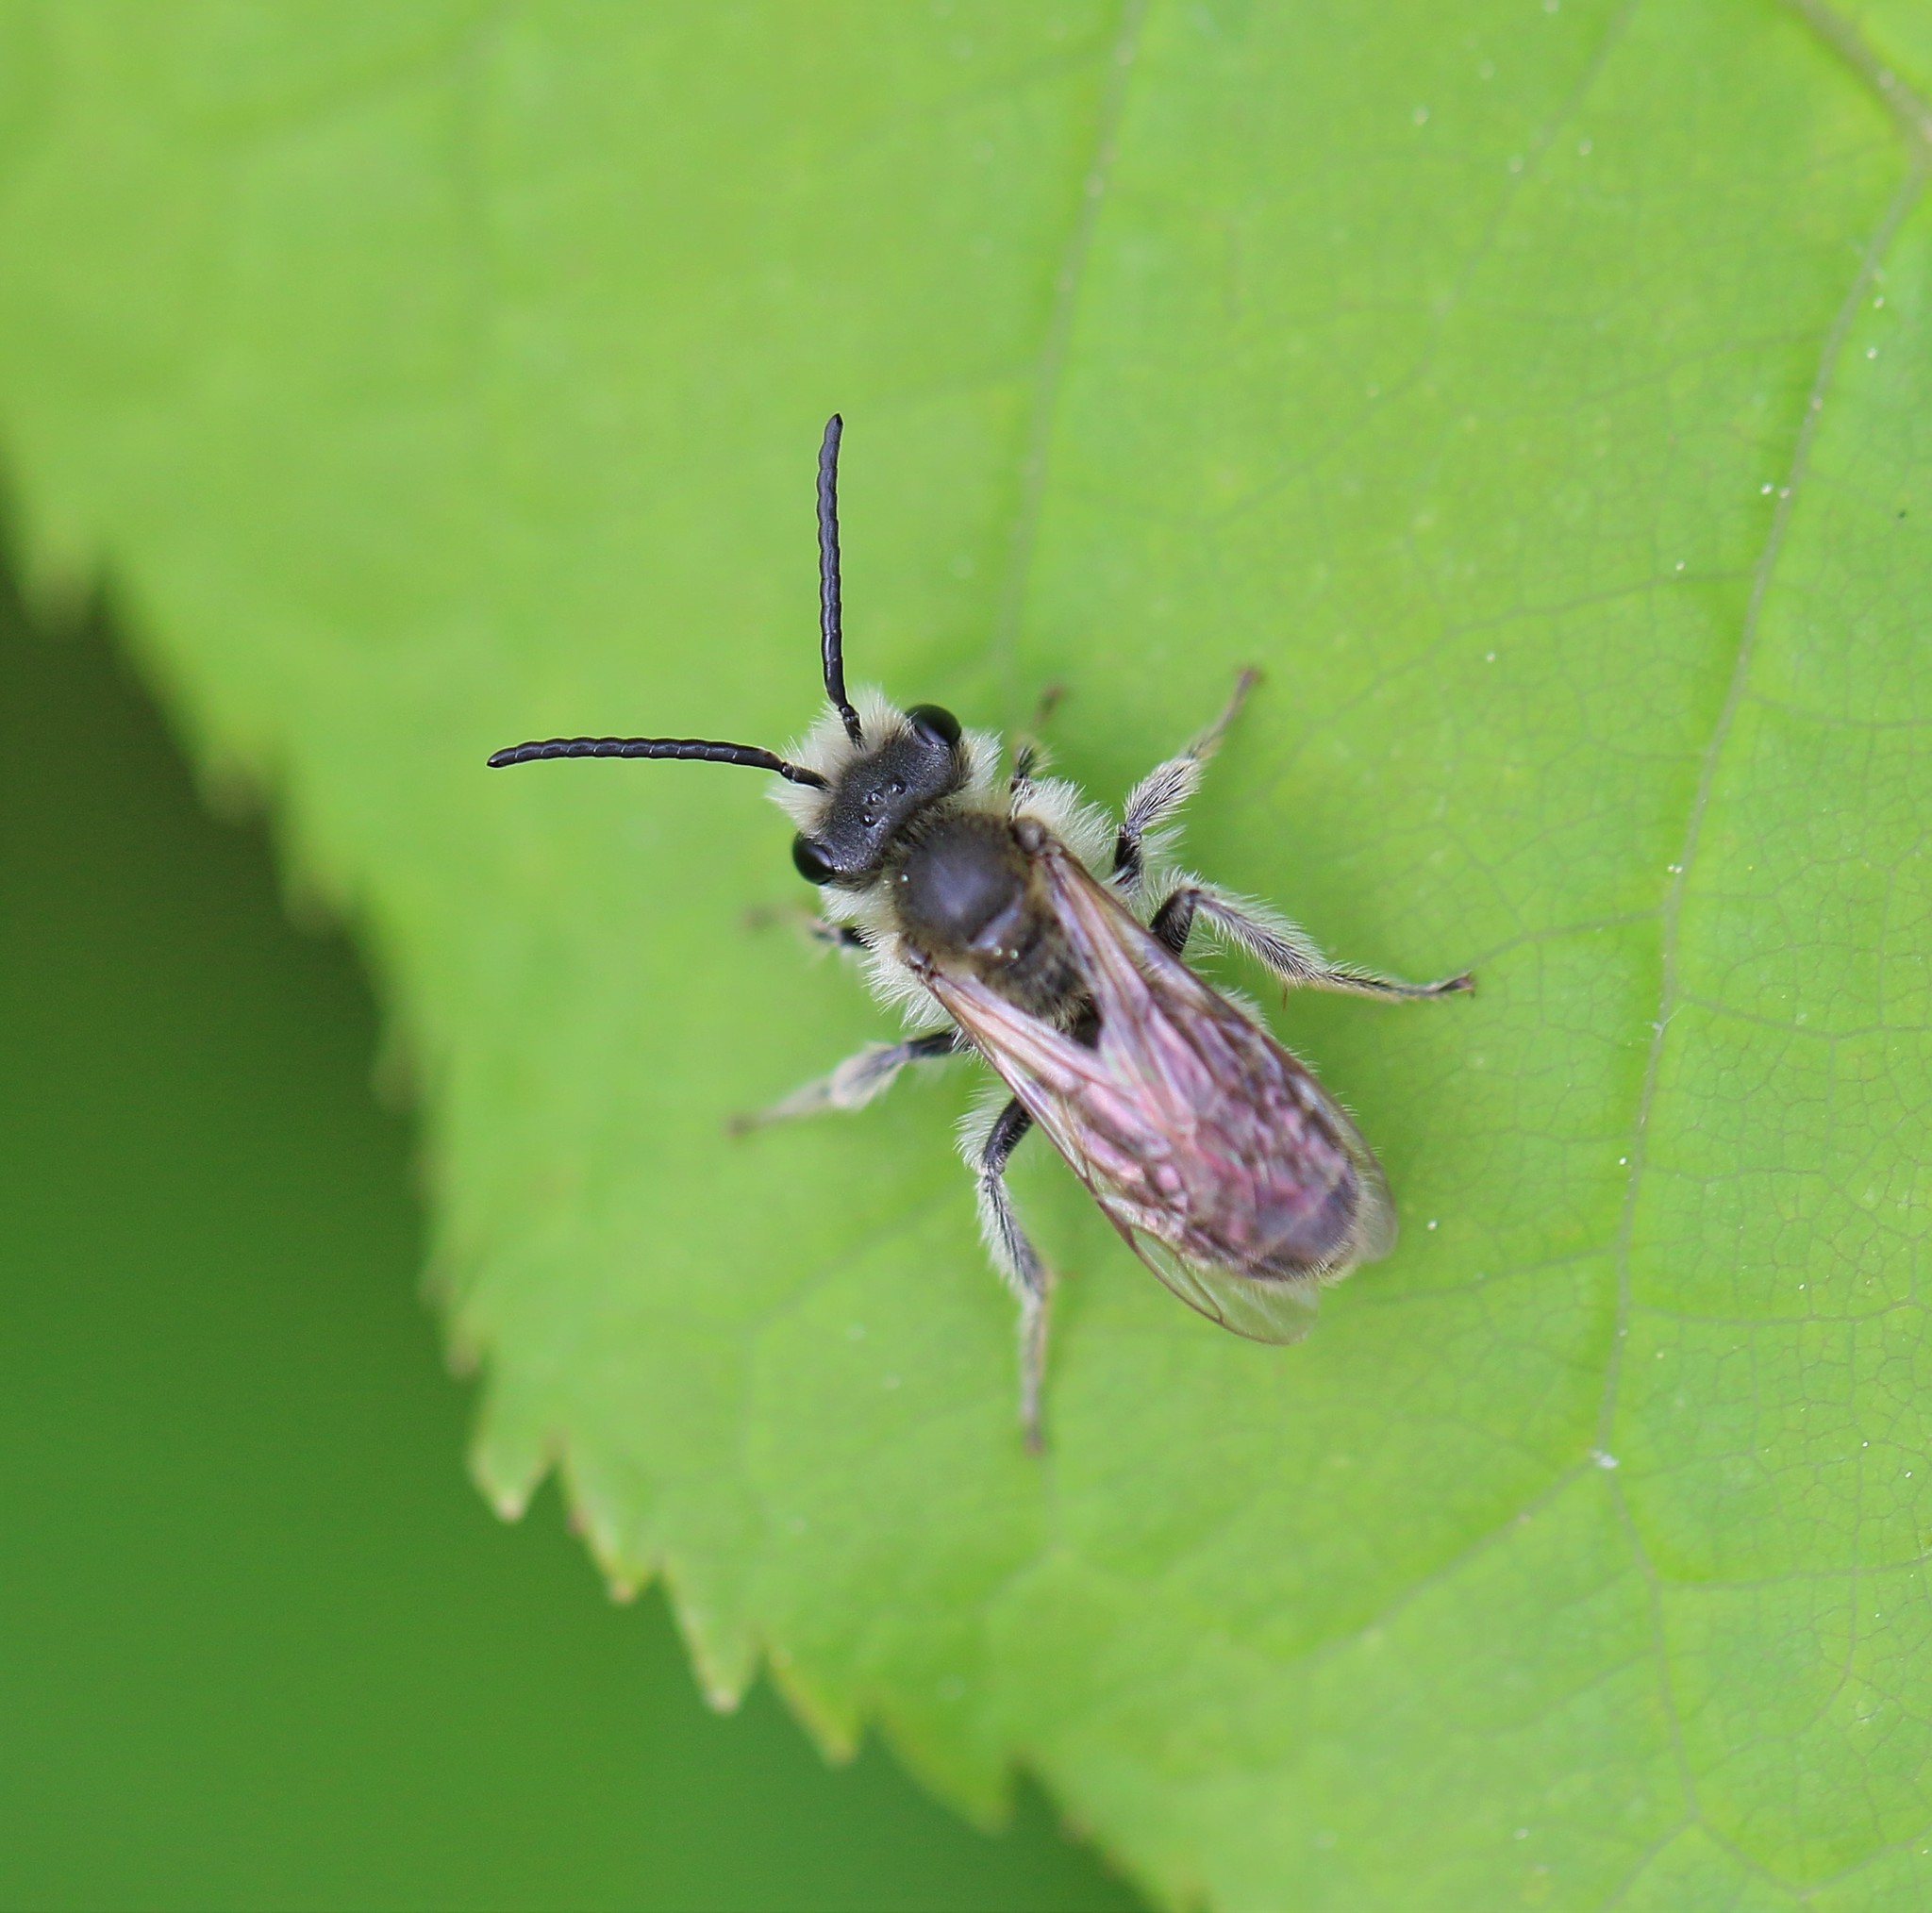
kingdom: Animalia
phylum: Arthropoda
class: Insecta
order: Hymenoptera
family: Andrenidae
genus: Andrena
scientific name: Andrena wilkella
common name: Wilke's mining bee
